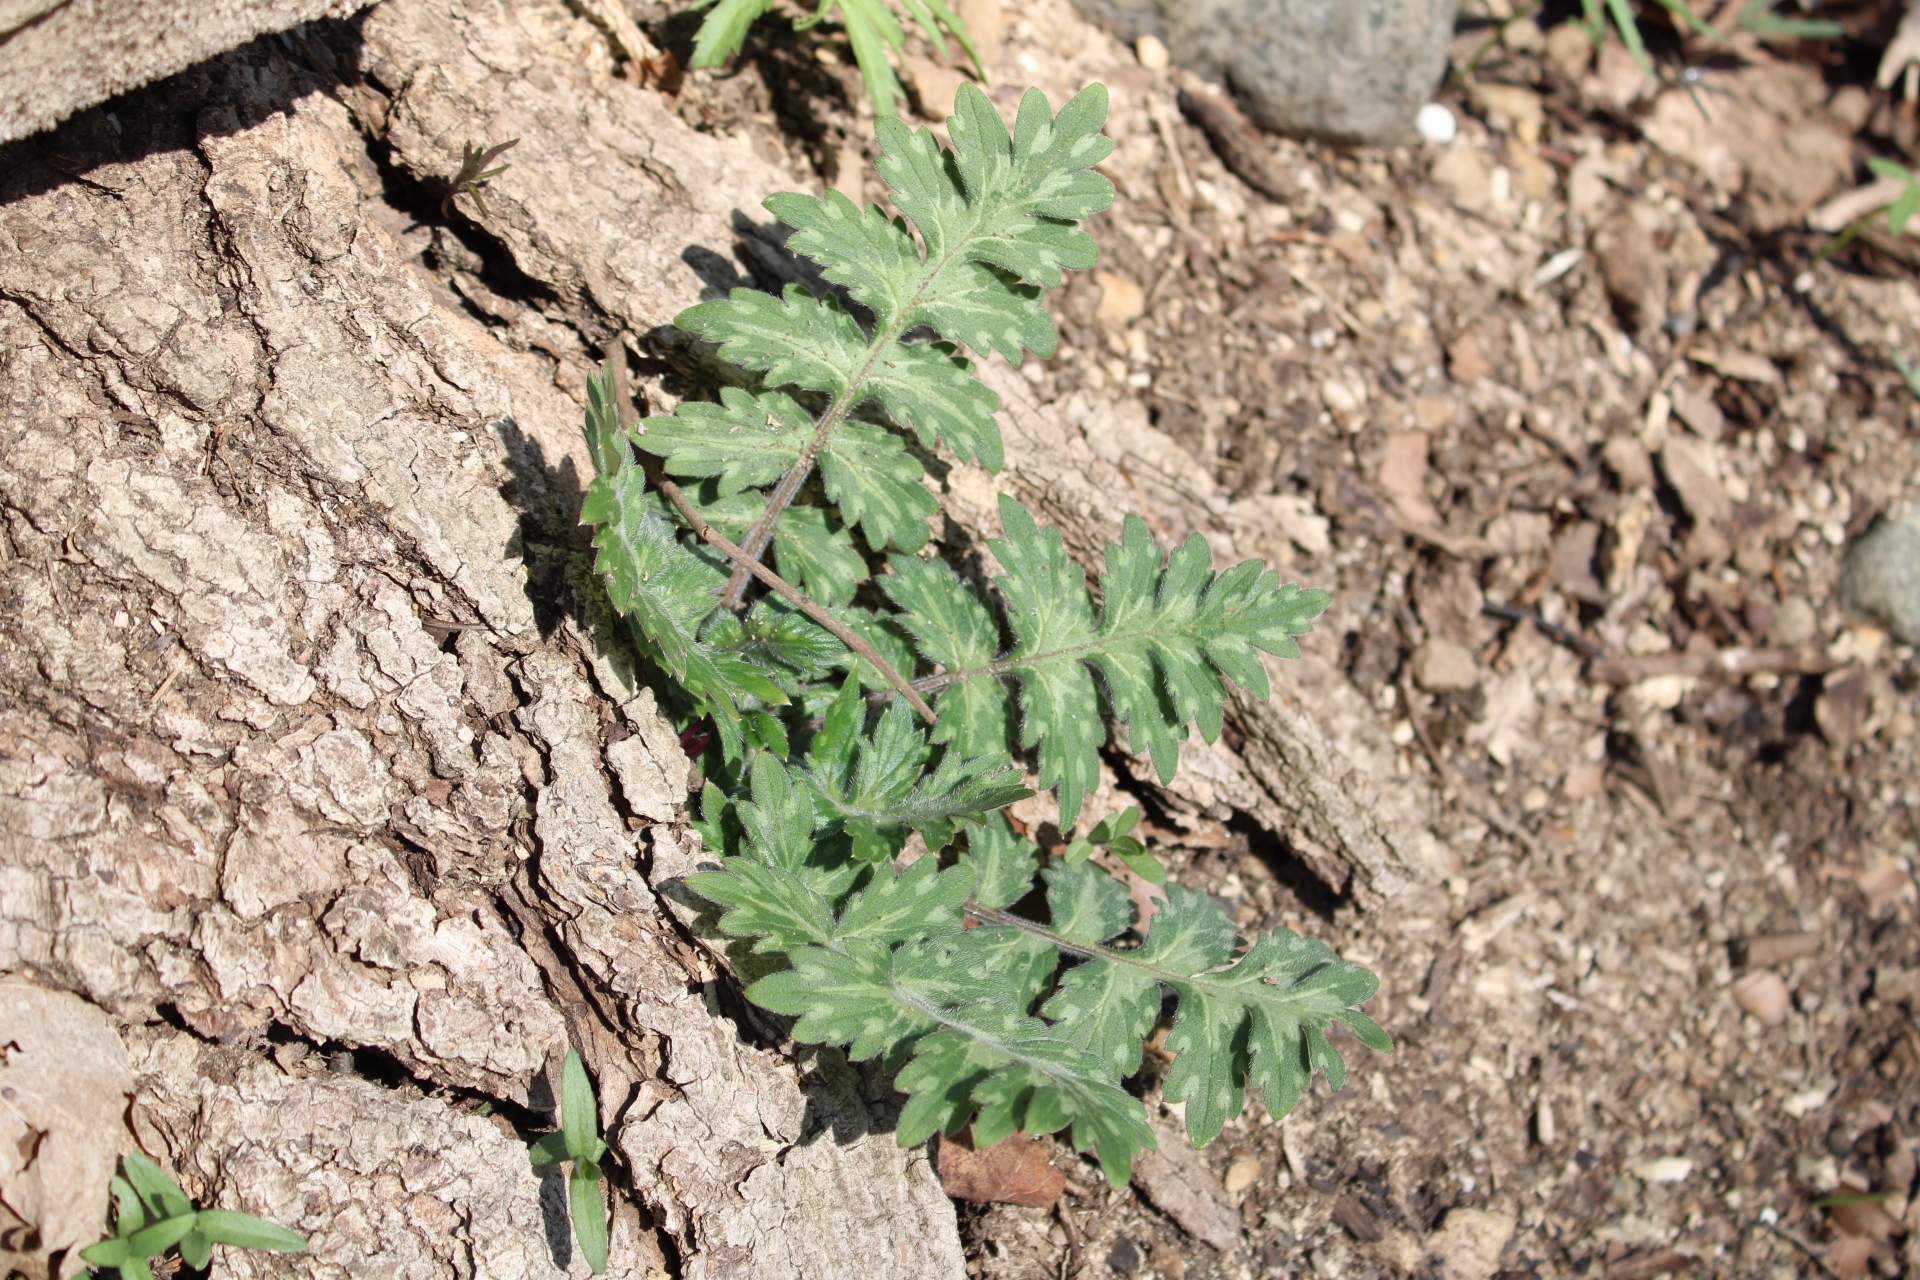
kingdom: Plantae
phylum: Tracheophyta
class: Magnoliopsida
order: Boraginales
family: Hydrophyllaceae
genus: Hydrophyllum
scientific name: Hydrophyllum macrophyllum
